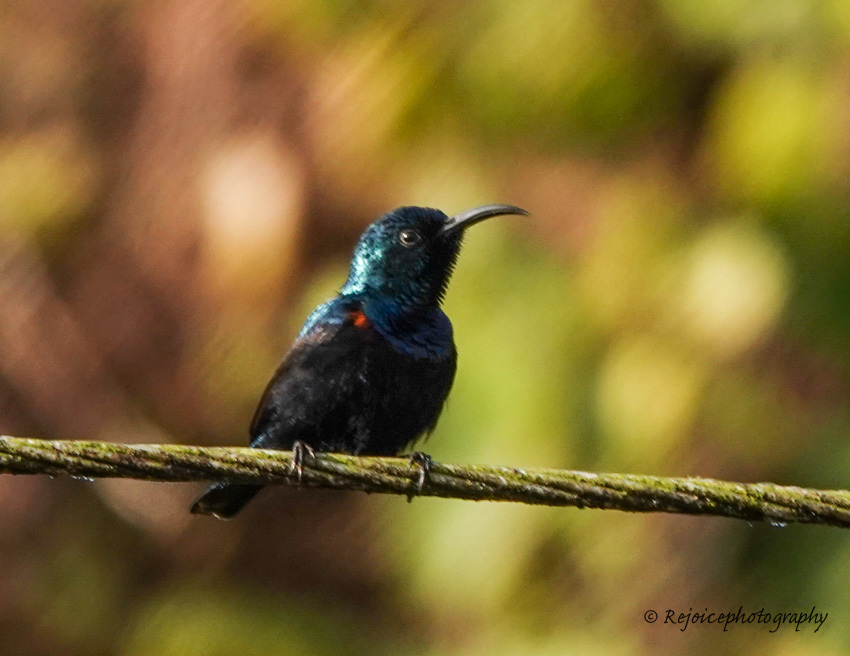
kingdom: Animalia
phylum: Chordata
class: Aves
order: Passeriformes
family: Nectariniidae
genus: Cinnyris
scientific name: Cinnyris asiaticus
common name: Purple sunbird
